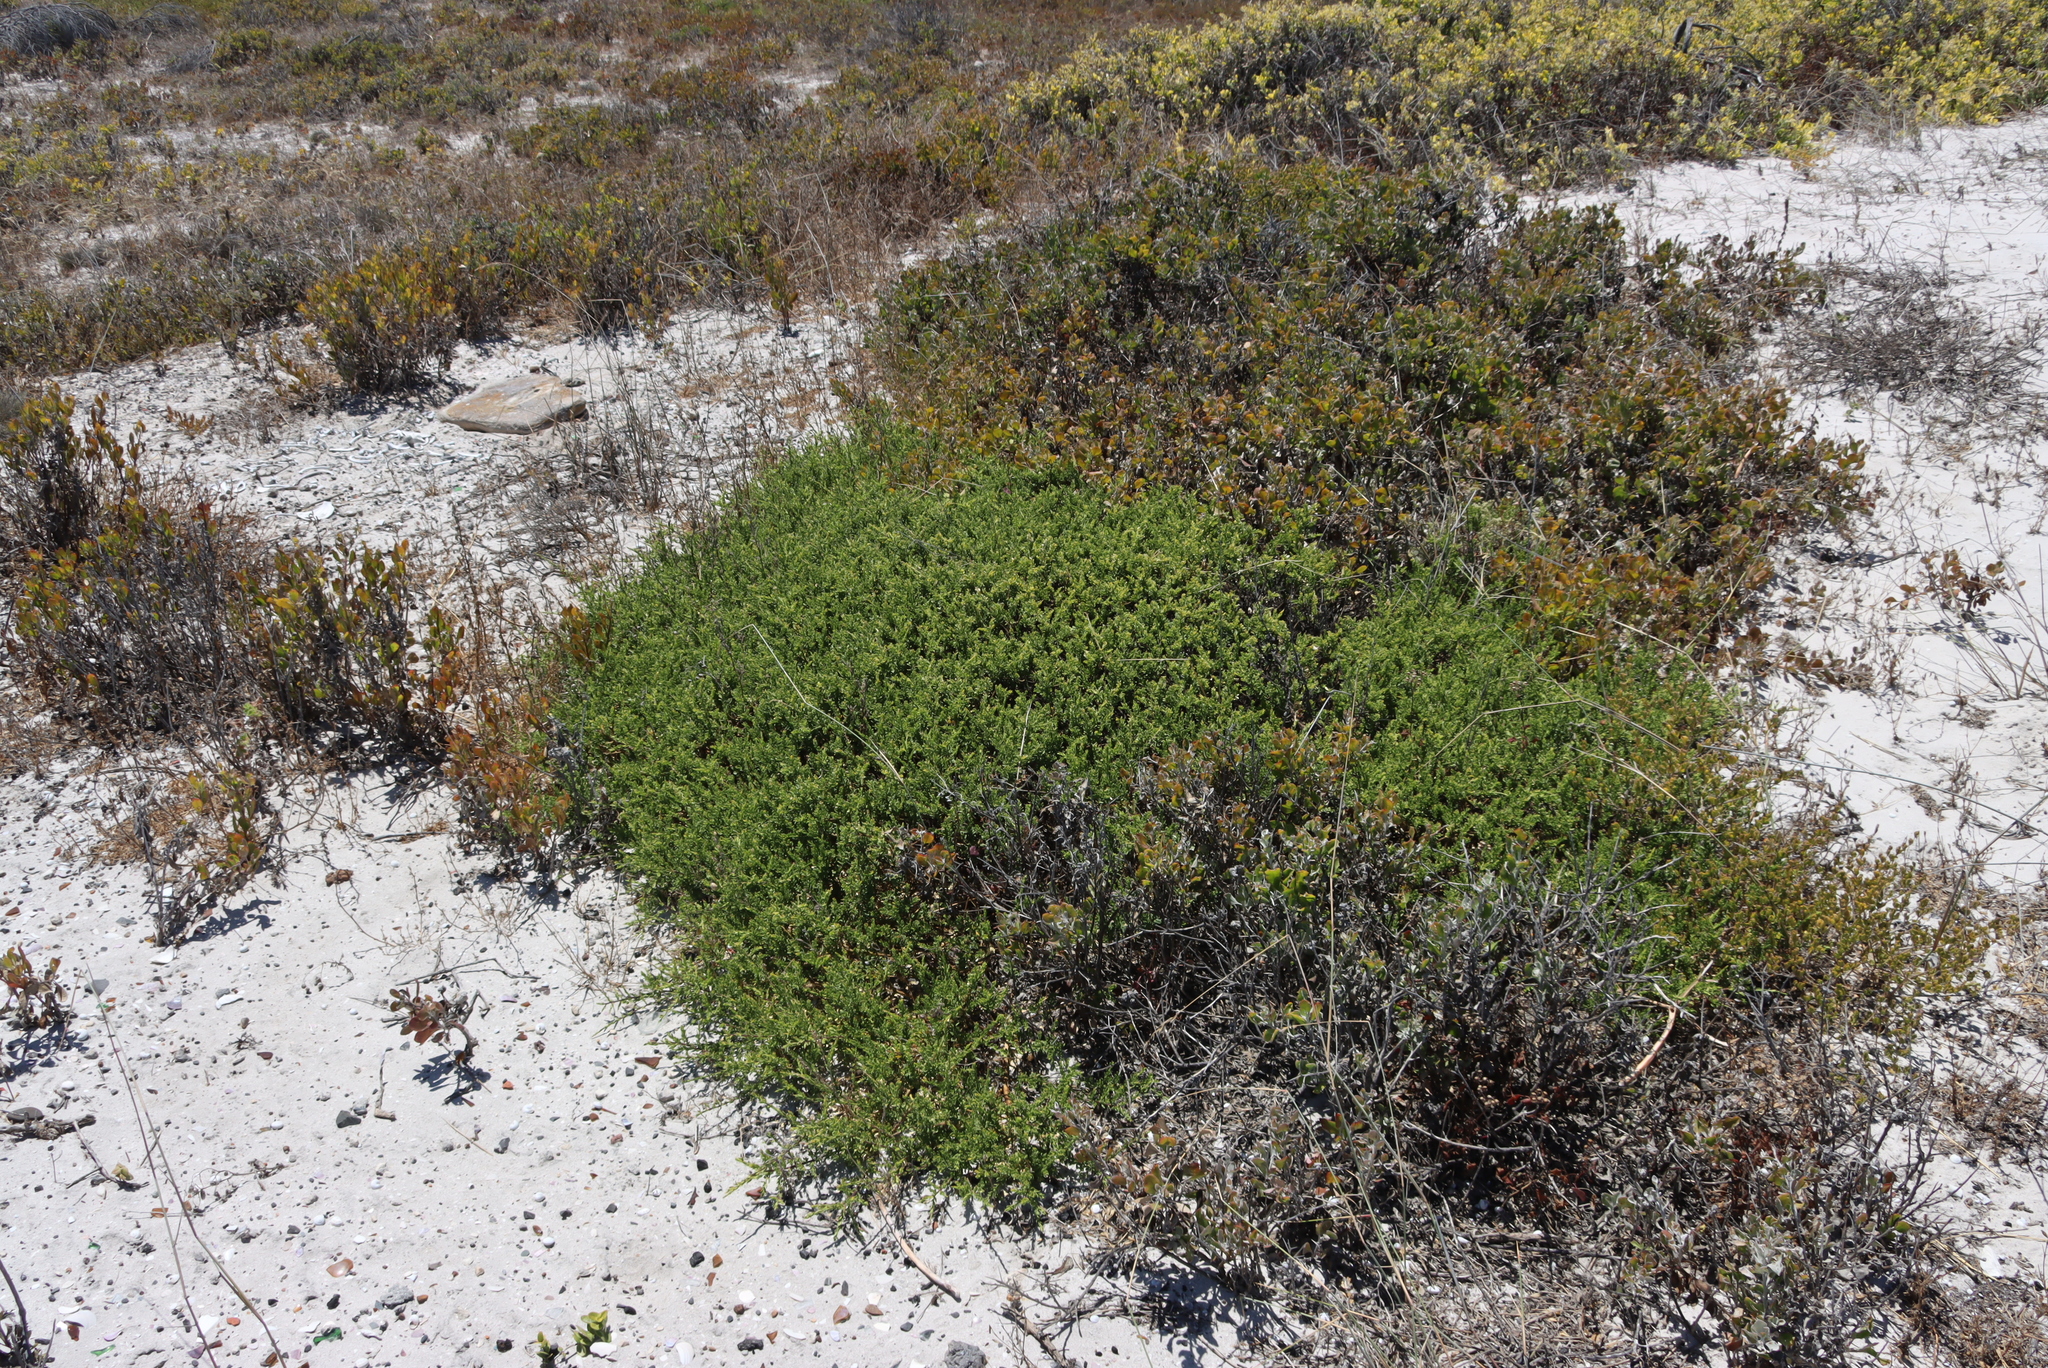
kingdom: Plantae
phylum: Tracheophyta
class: Magnoliopsida
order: Fabales
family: Polygalaceae
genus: Muraltia
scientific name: Muraltia spinosa
